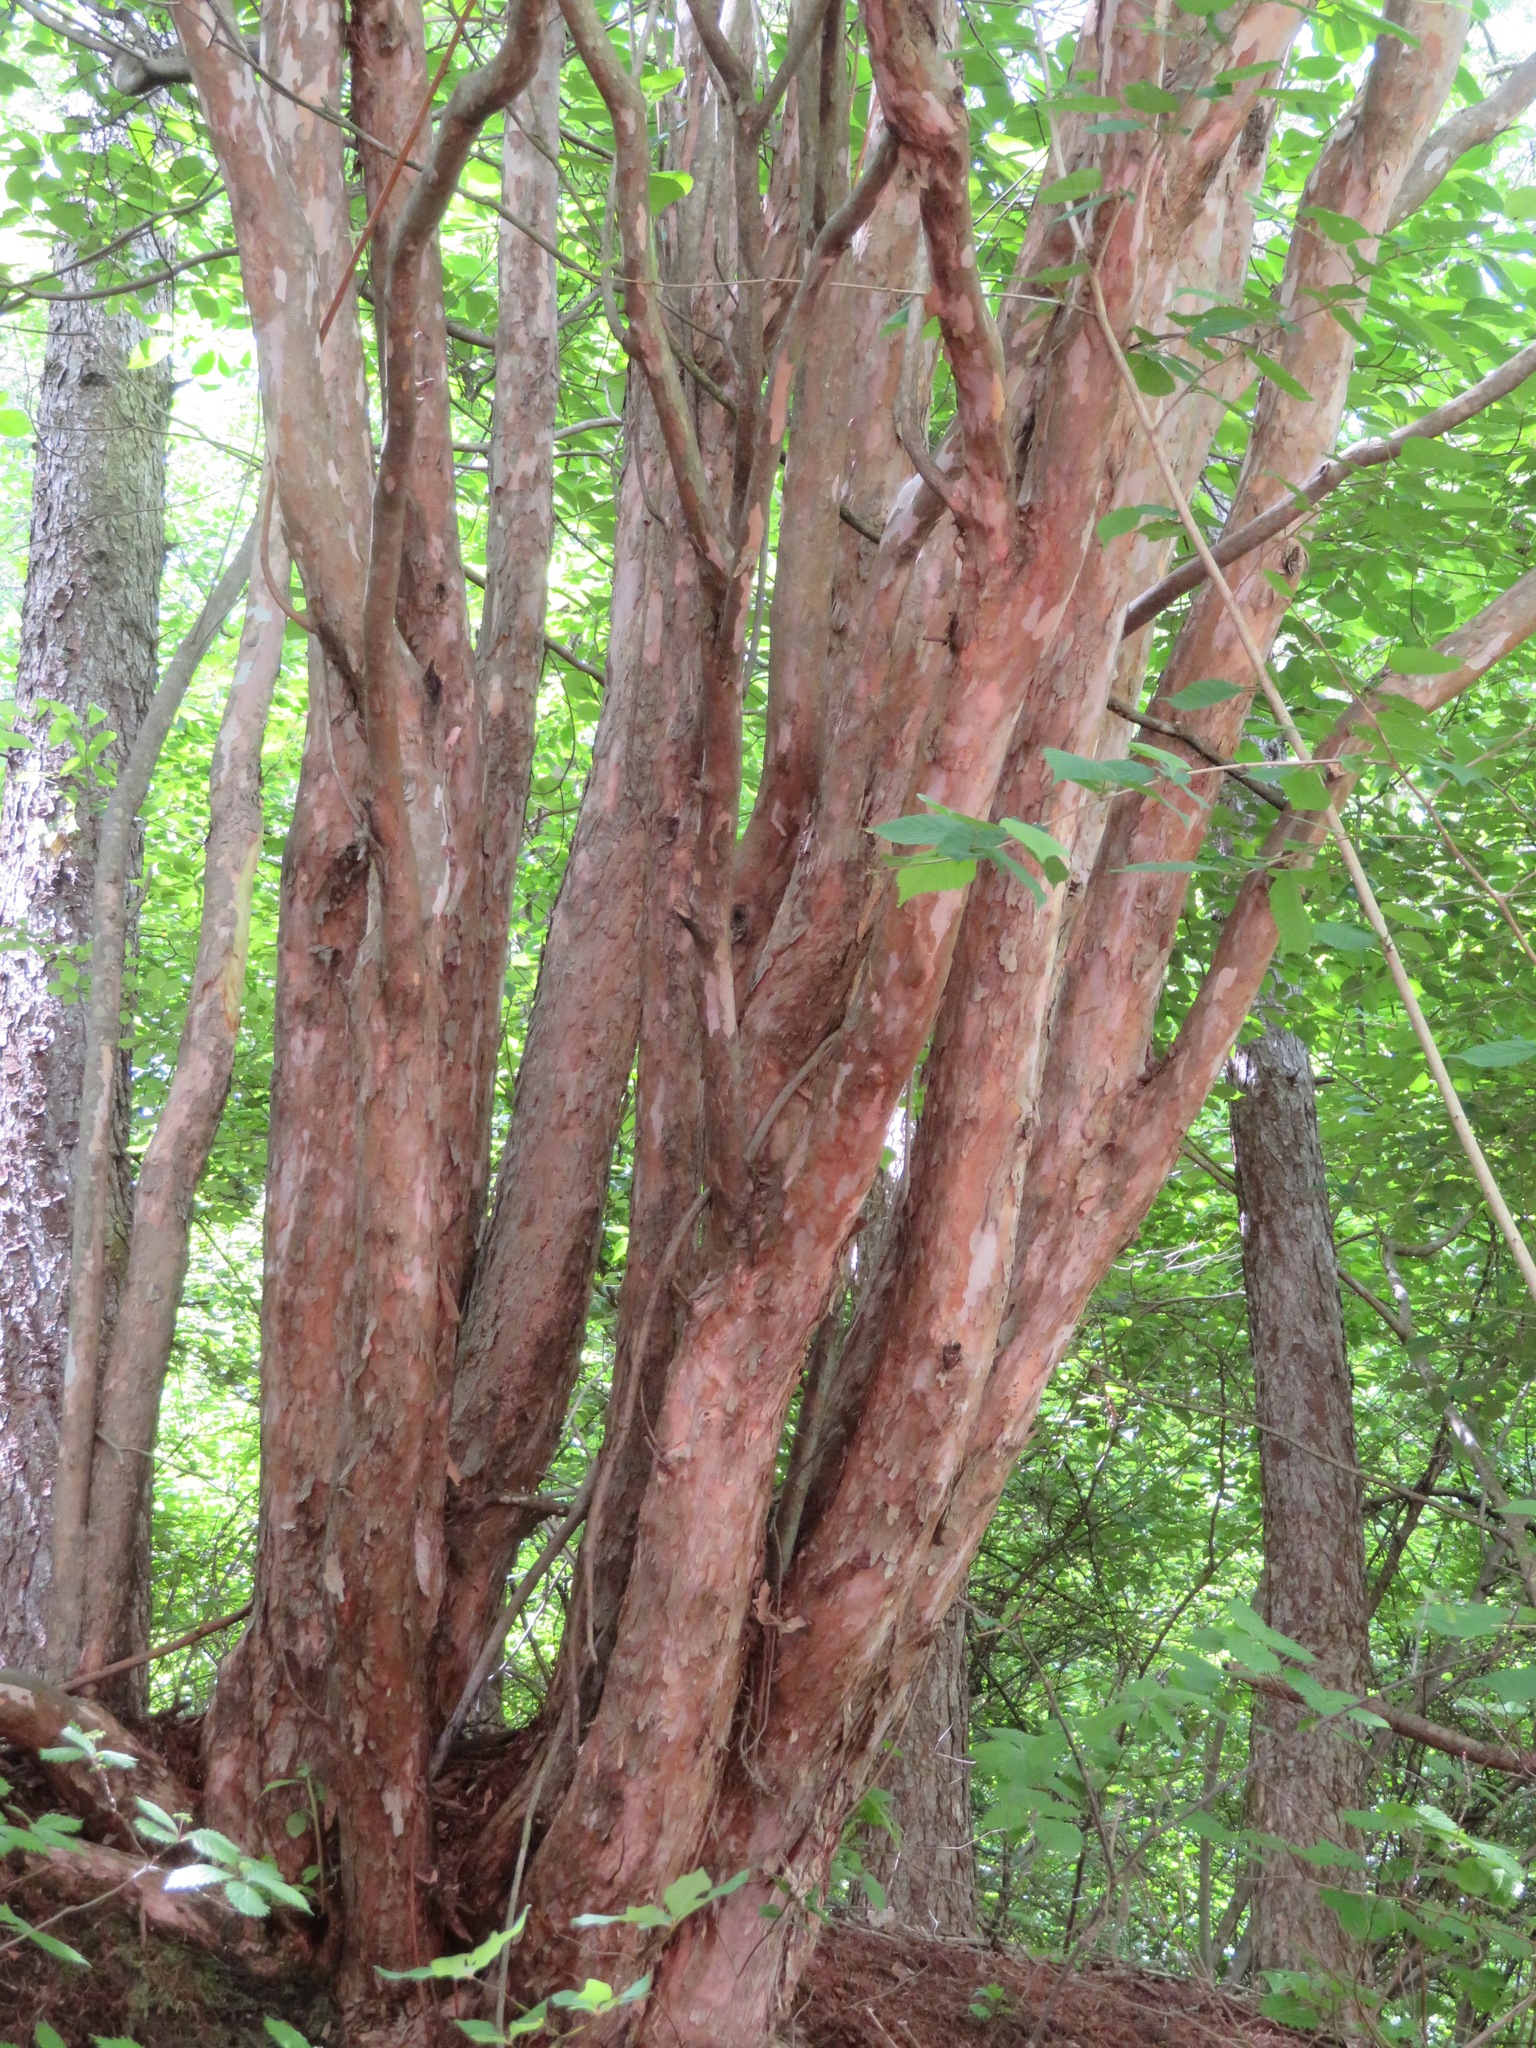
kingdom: Plantae
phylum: Tracheophyta
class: Magnoliopsida
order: Ericales
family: Clethraceae
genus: Clethra
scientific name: Clethra barbinervis
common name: Japanese clethra
